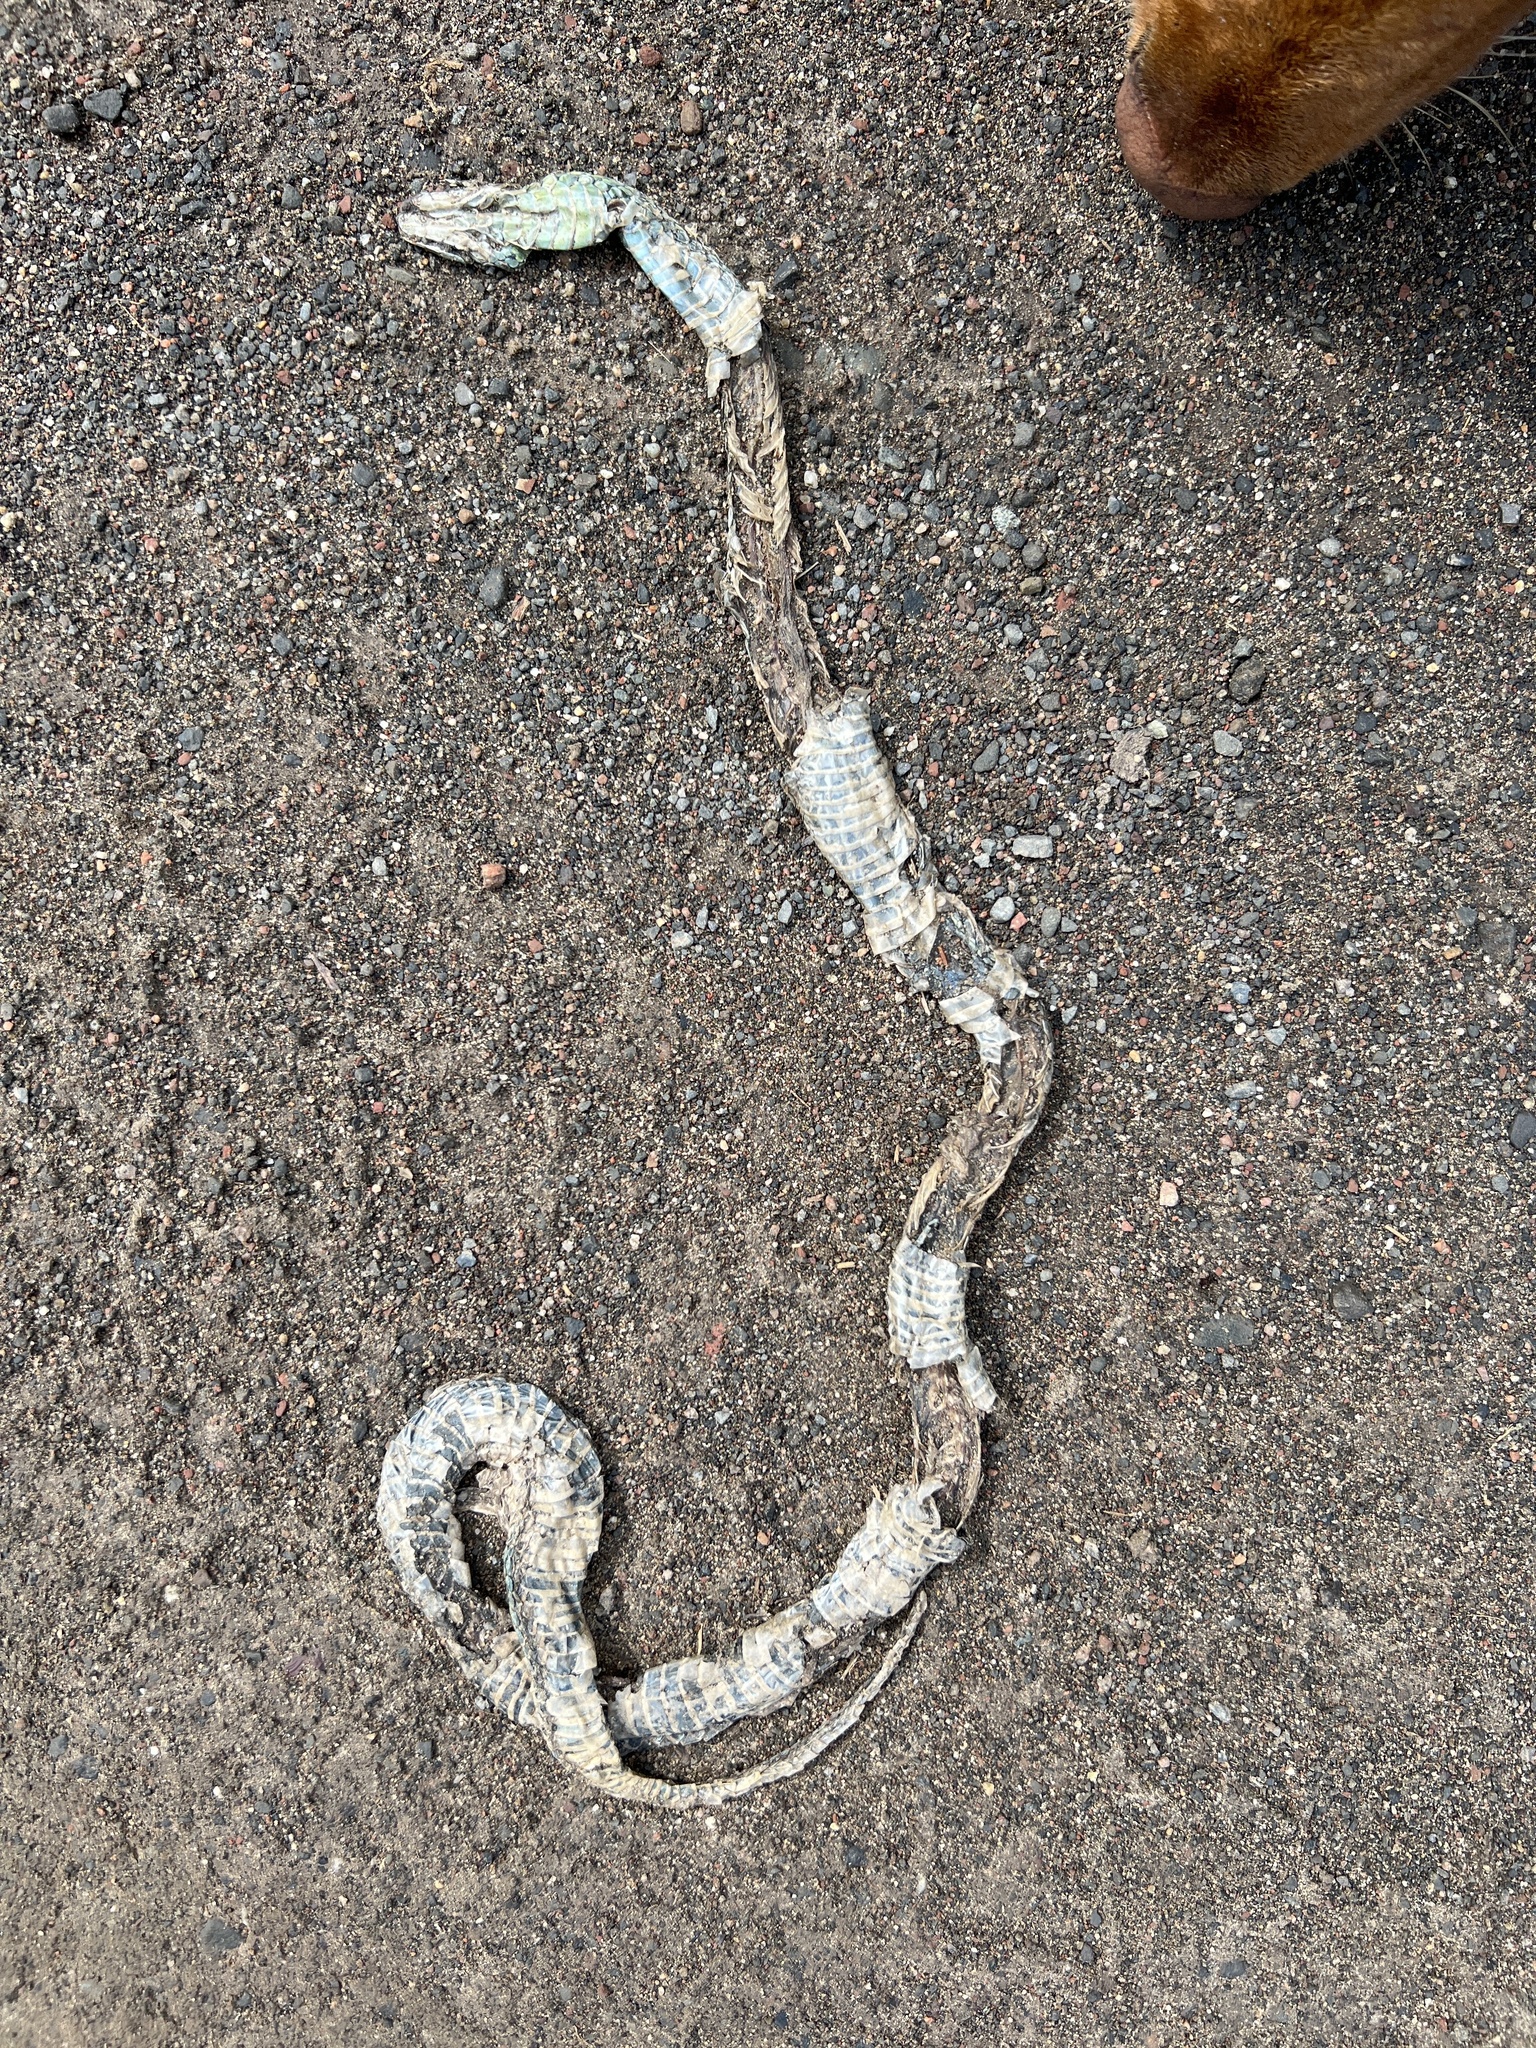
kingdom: Animalia
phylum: Chordata
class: Squamata
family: Colubridae
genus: Thamnophis
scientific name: Thamnophis sirtalis
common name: Common garter snake
